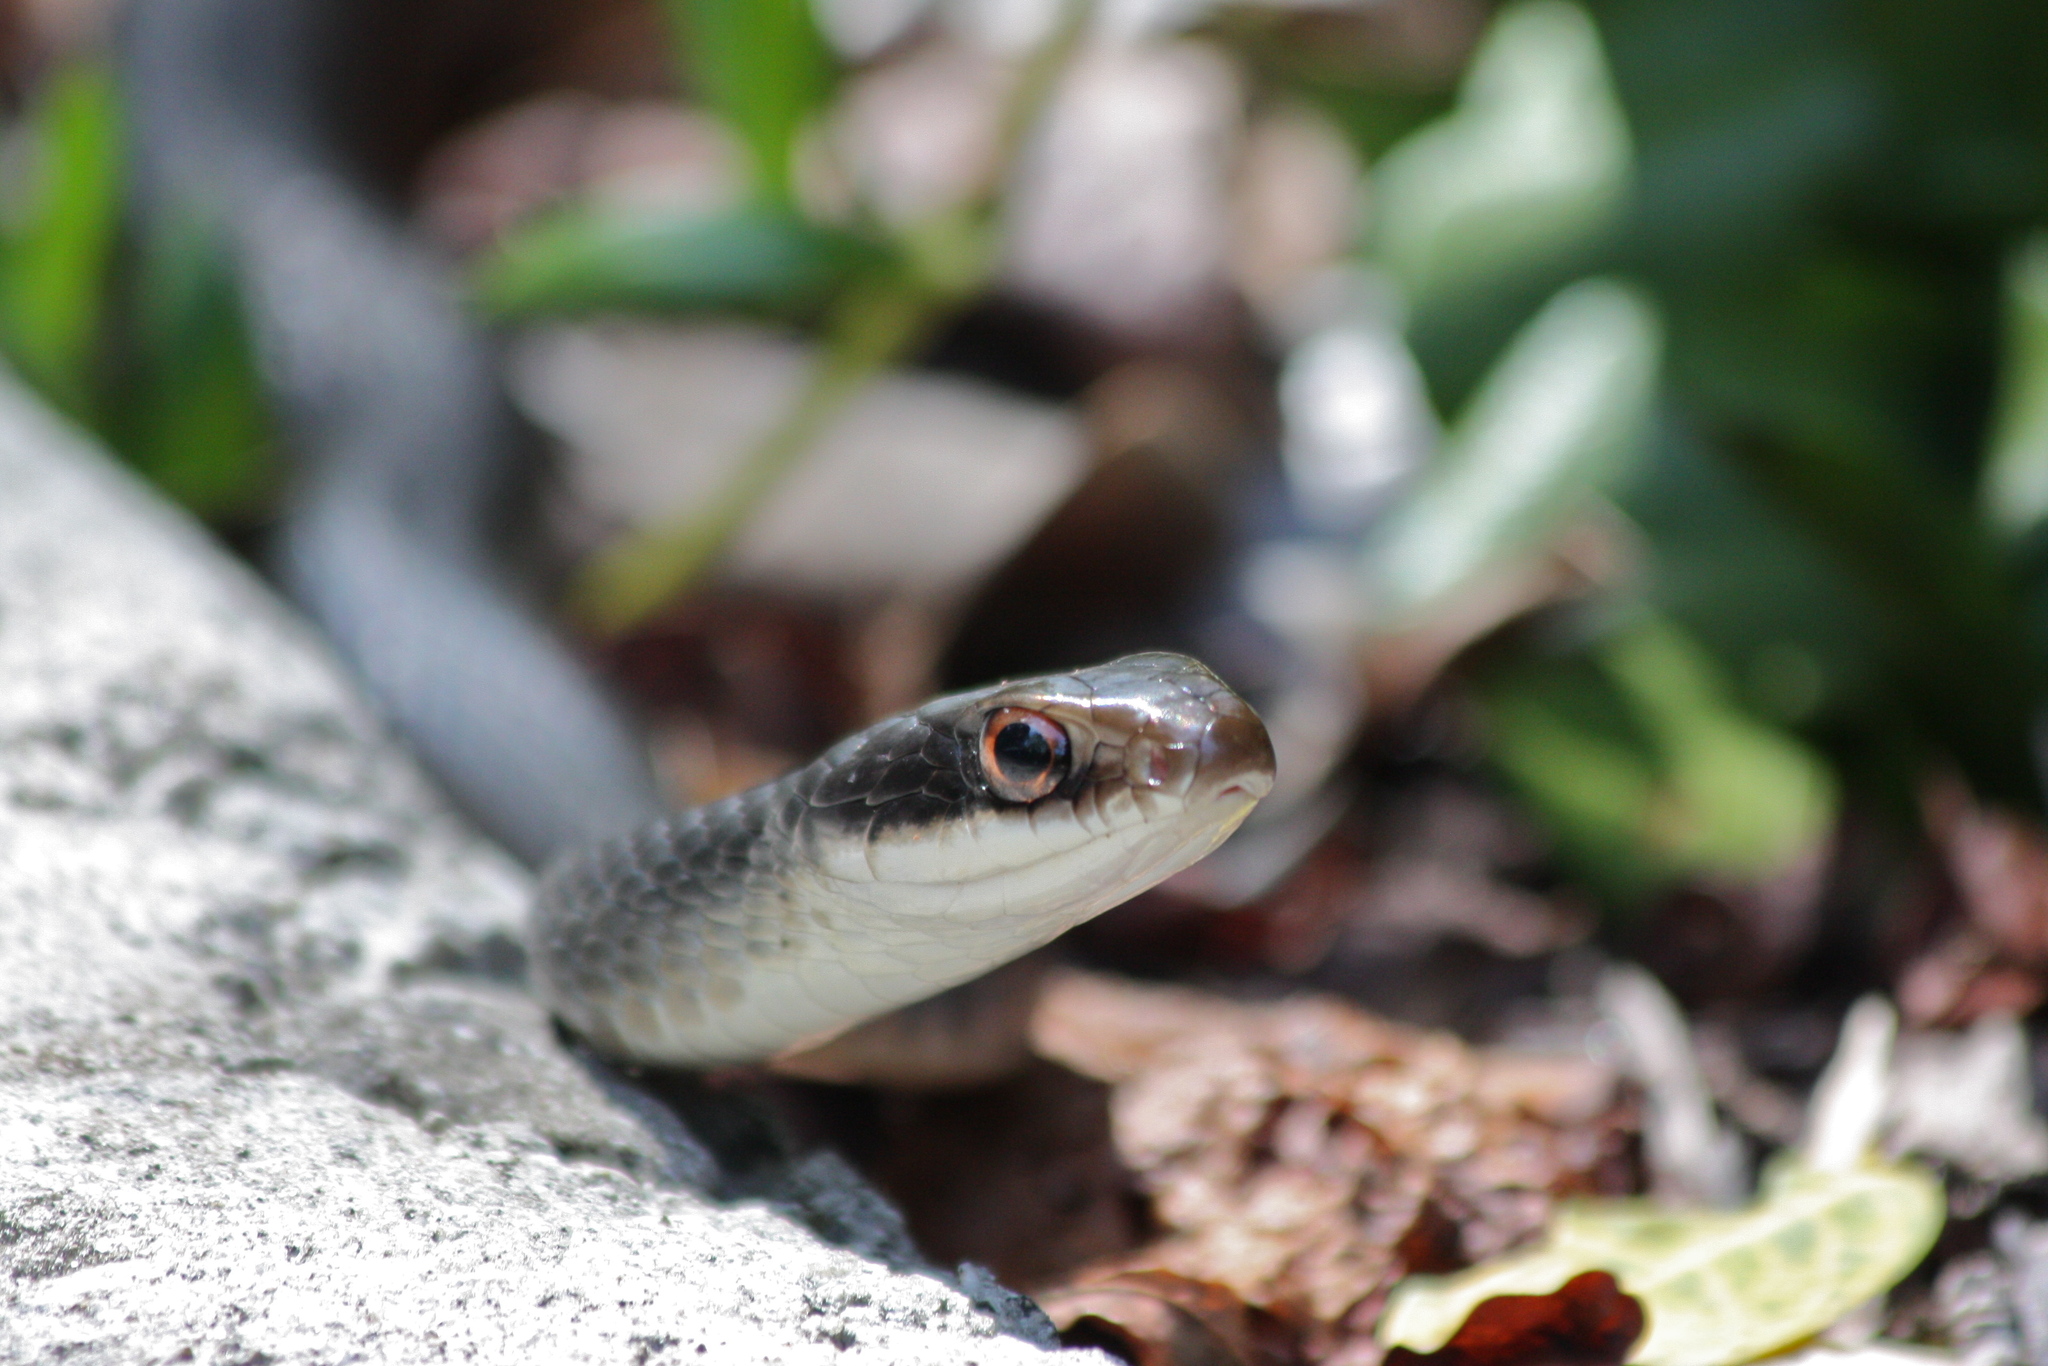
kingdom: Animalia
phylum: Chordata
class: Squamata
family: Colubridae
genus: Coluber
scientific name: Coluber constrictor
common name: Eastern racer
